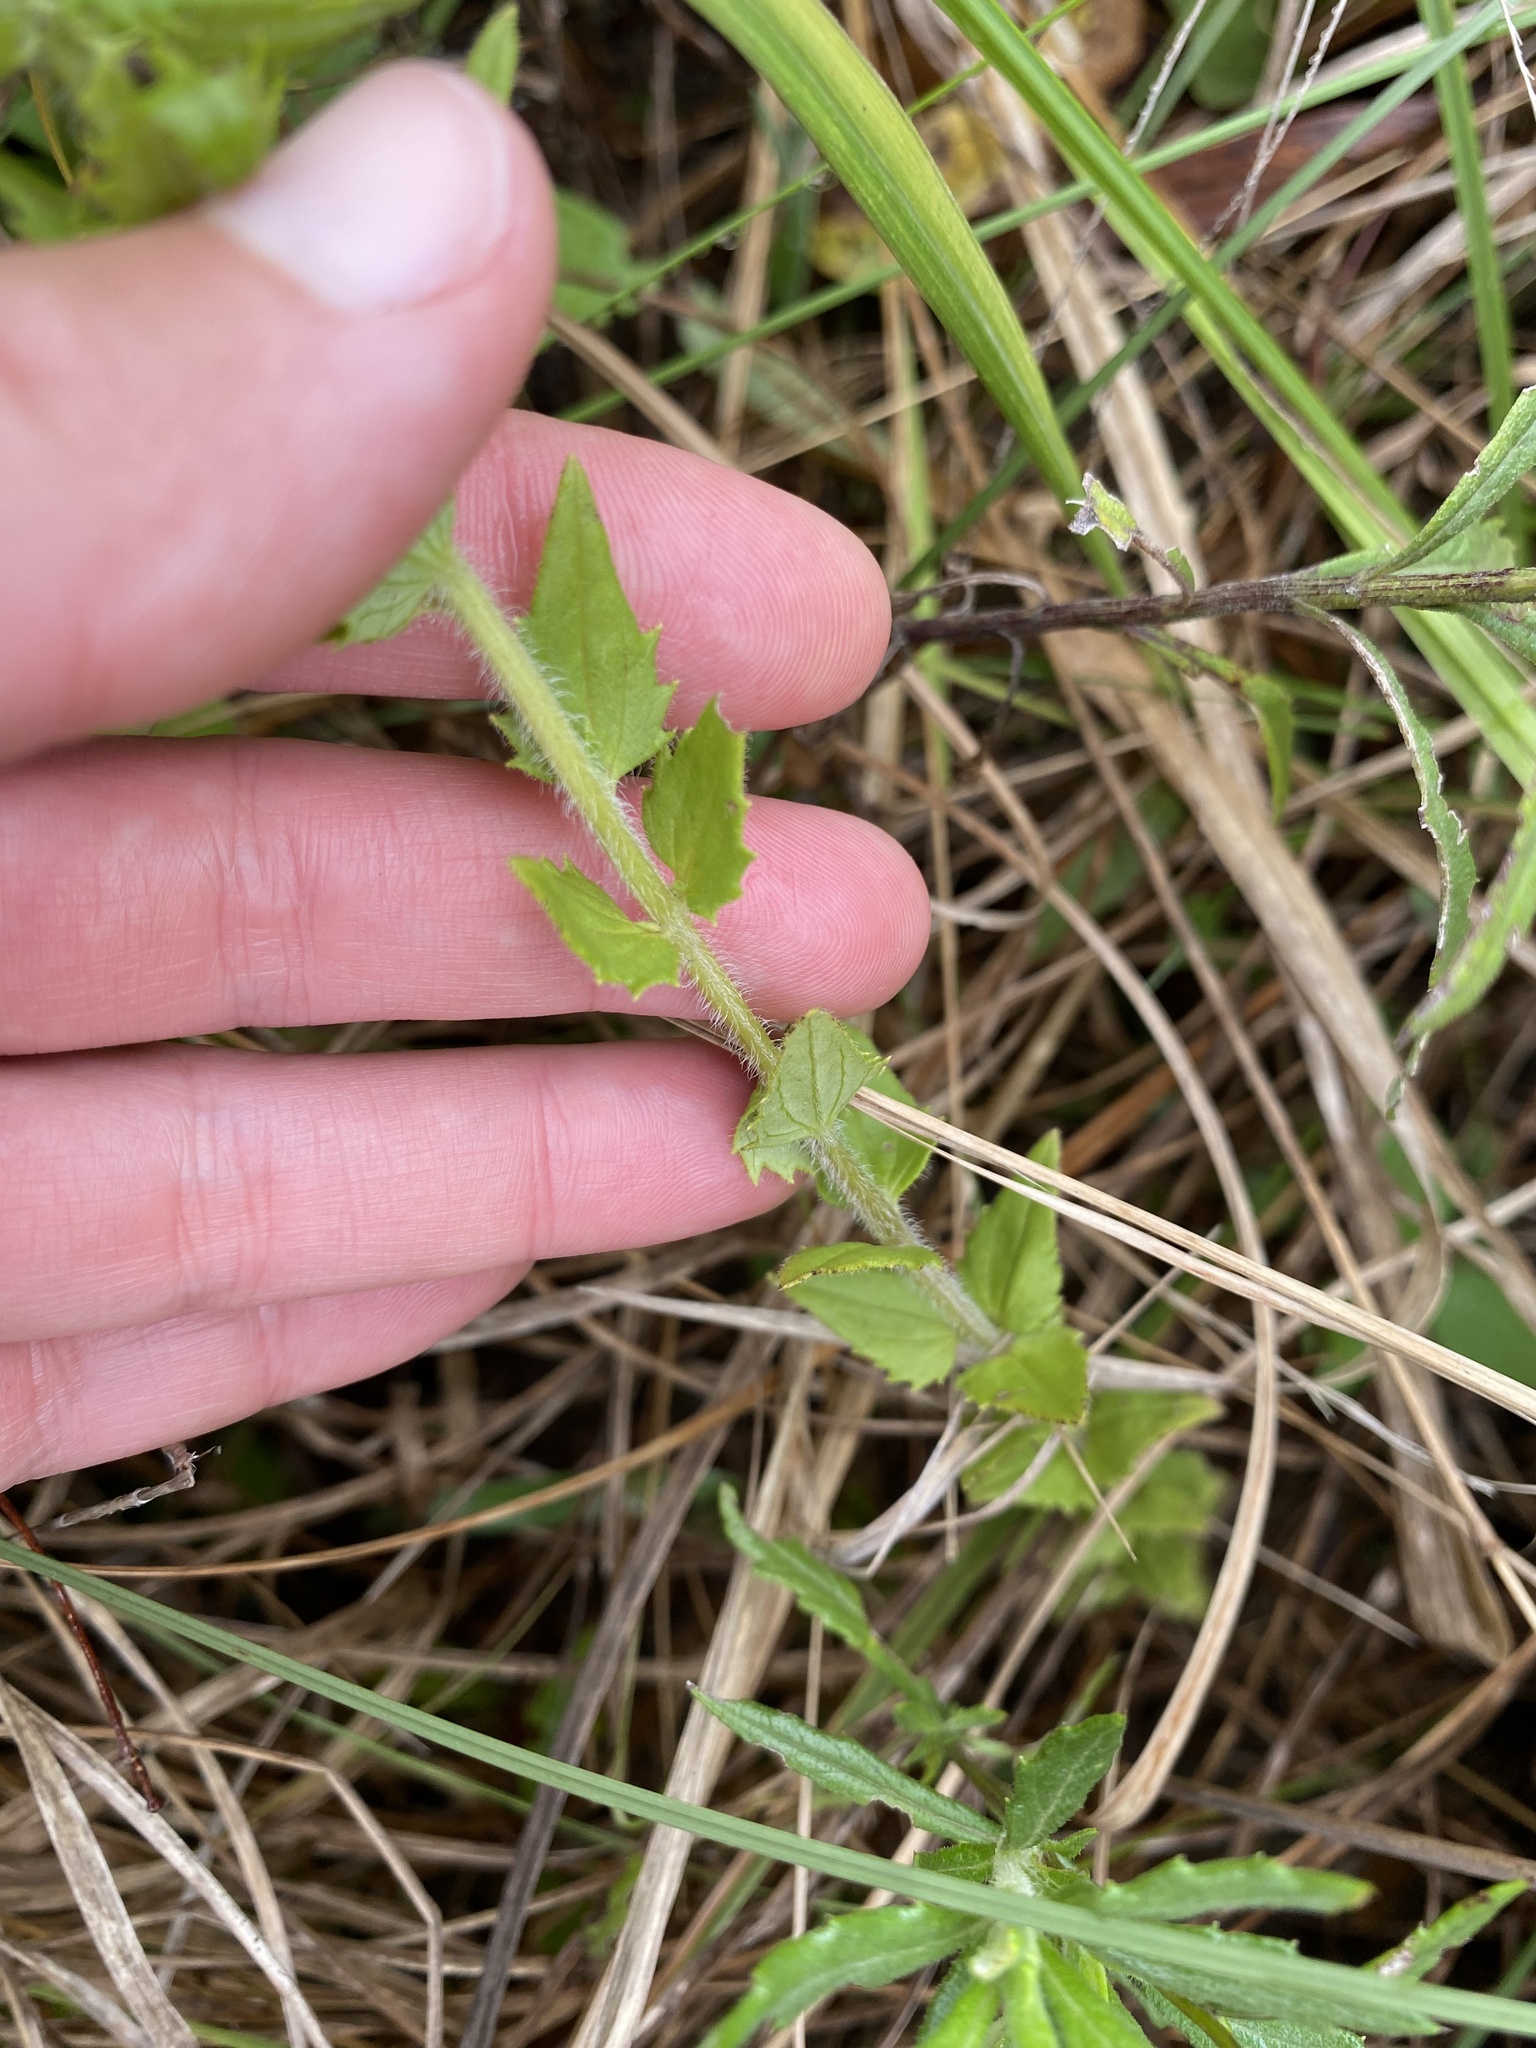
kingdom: Plantae
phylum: Tracheophyta
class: Magnoliopsida
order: Lamiales
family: Orobanchaceae
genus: Alectra
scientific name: Alectra sessiliflora
